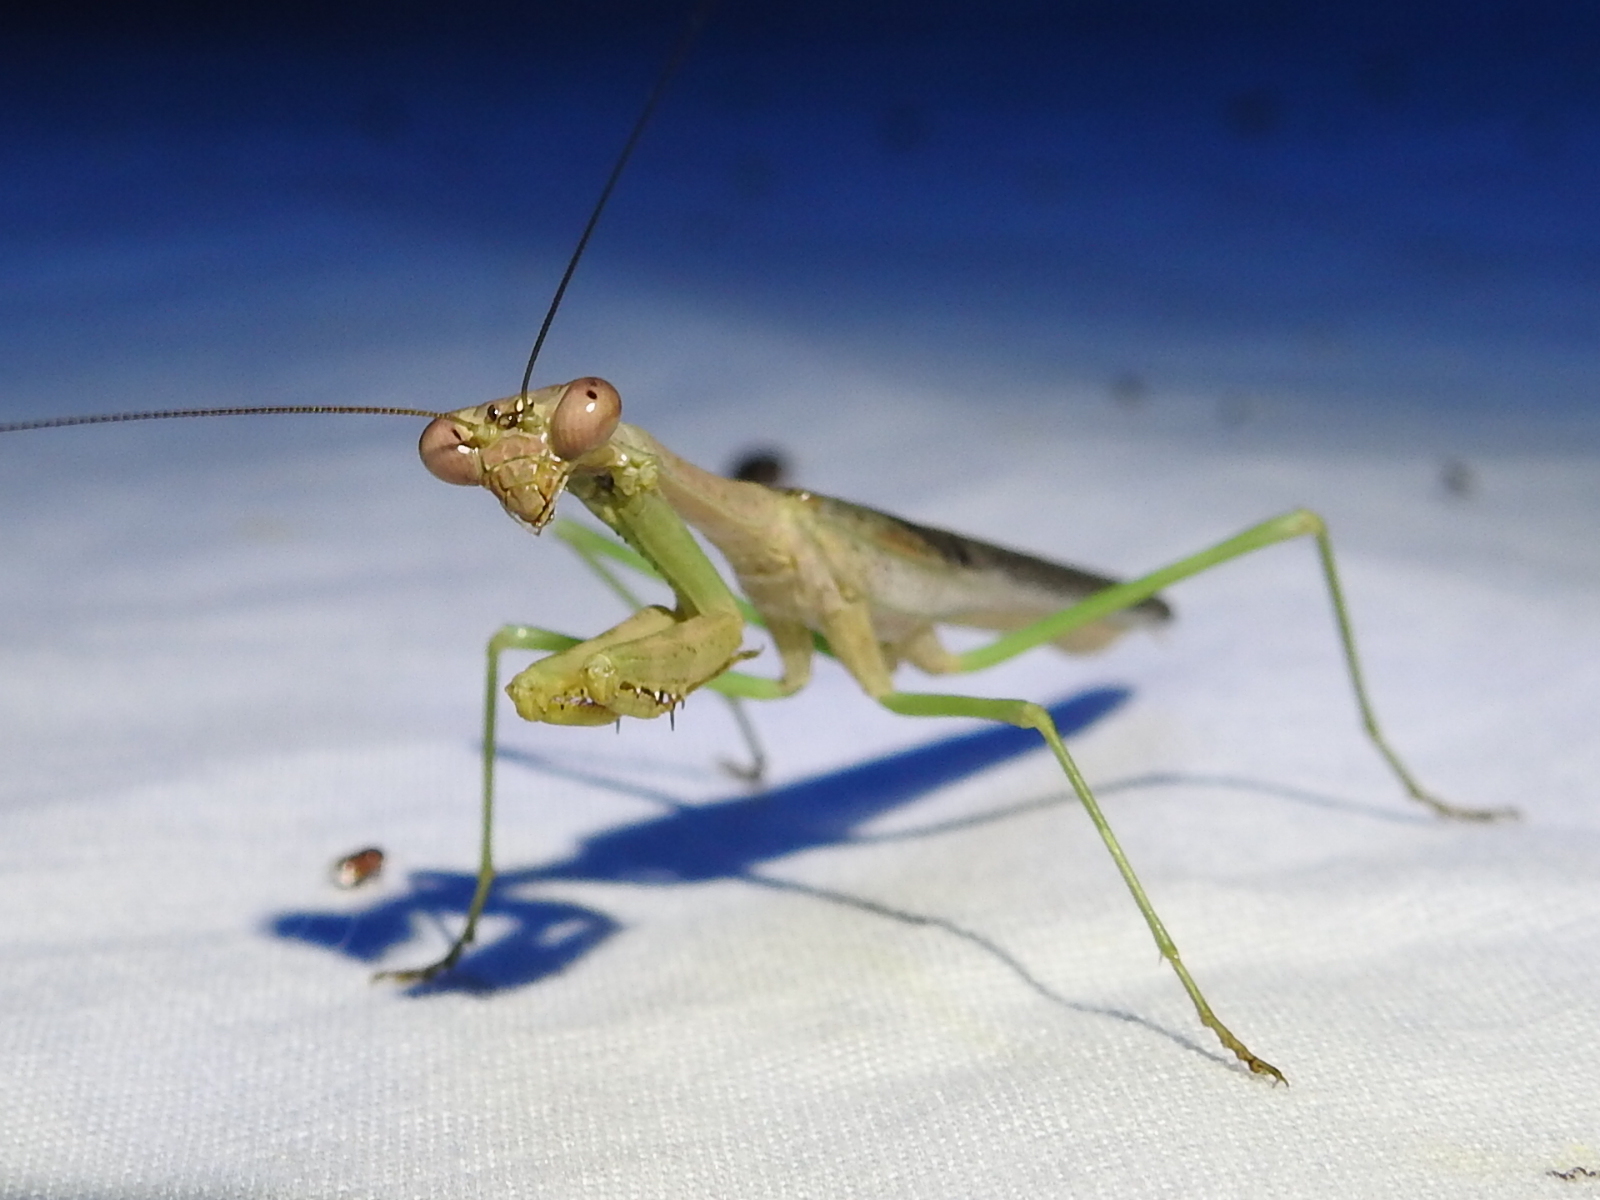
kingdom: Animalia
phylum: Arthropoda
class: Insecta
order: Mantodea
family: Mantidae
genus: Stagmomantis
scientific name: Stagmomantis carolina
